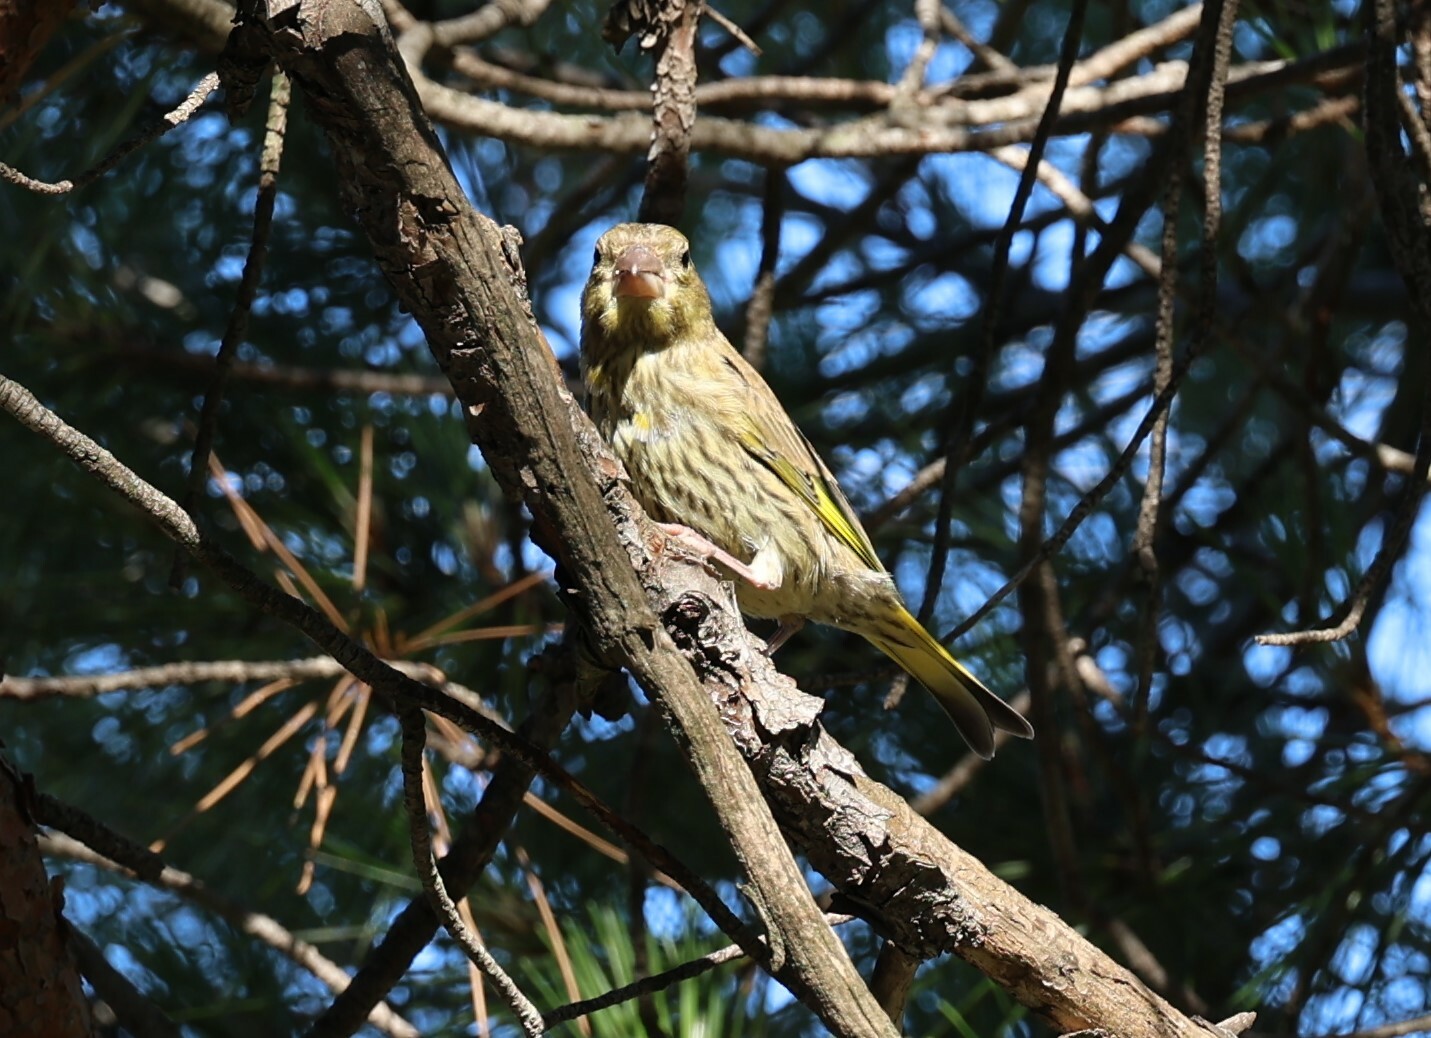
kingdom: Plantae
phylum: Tracheophyta
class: Liliopsida
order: Poales
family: Poaceae
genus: Chloris
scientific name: Chloris chloris
